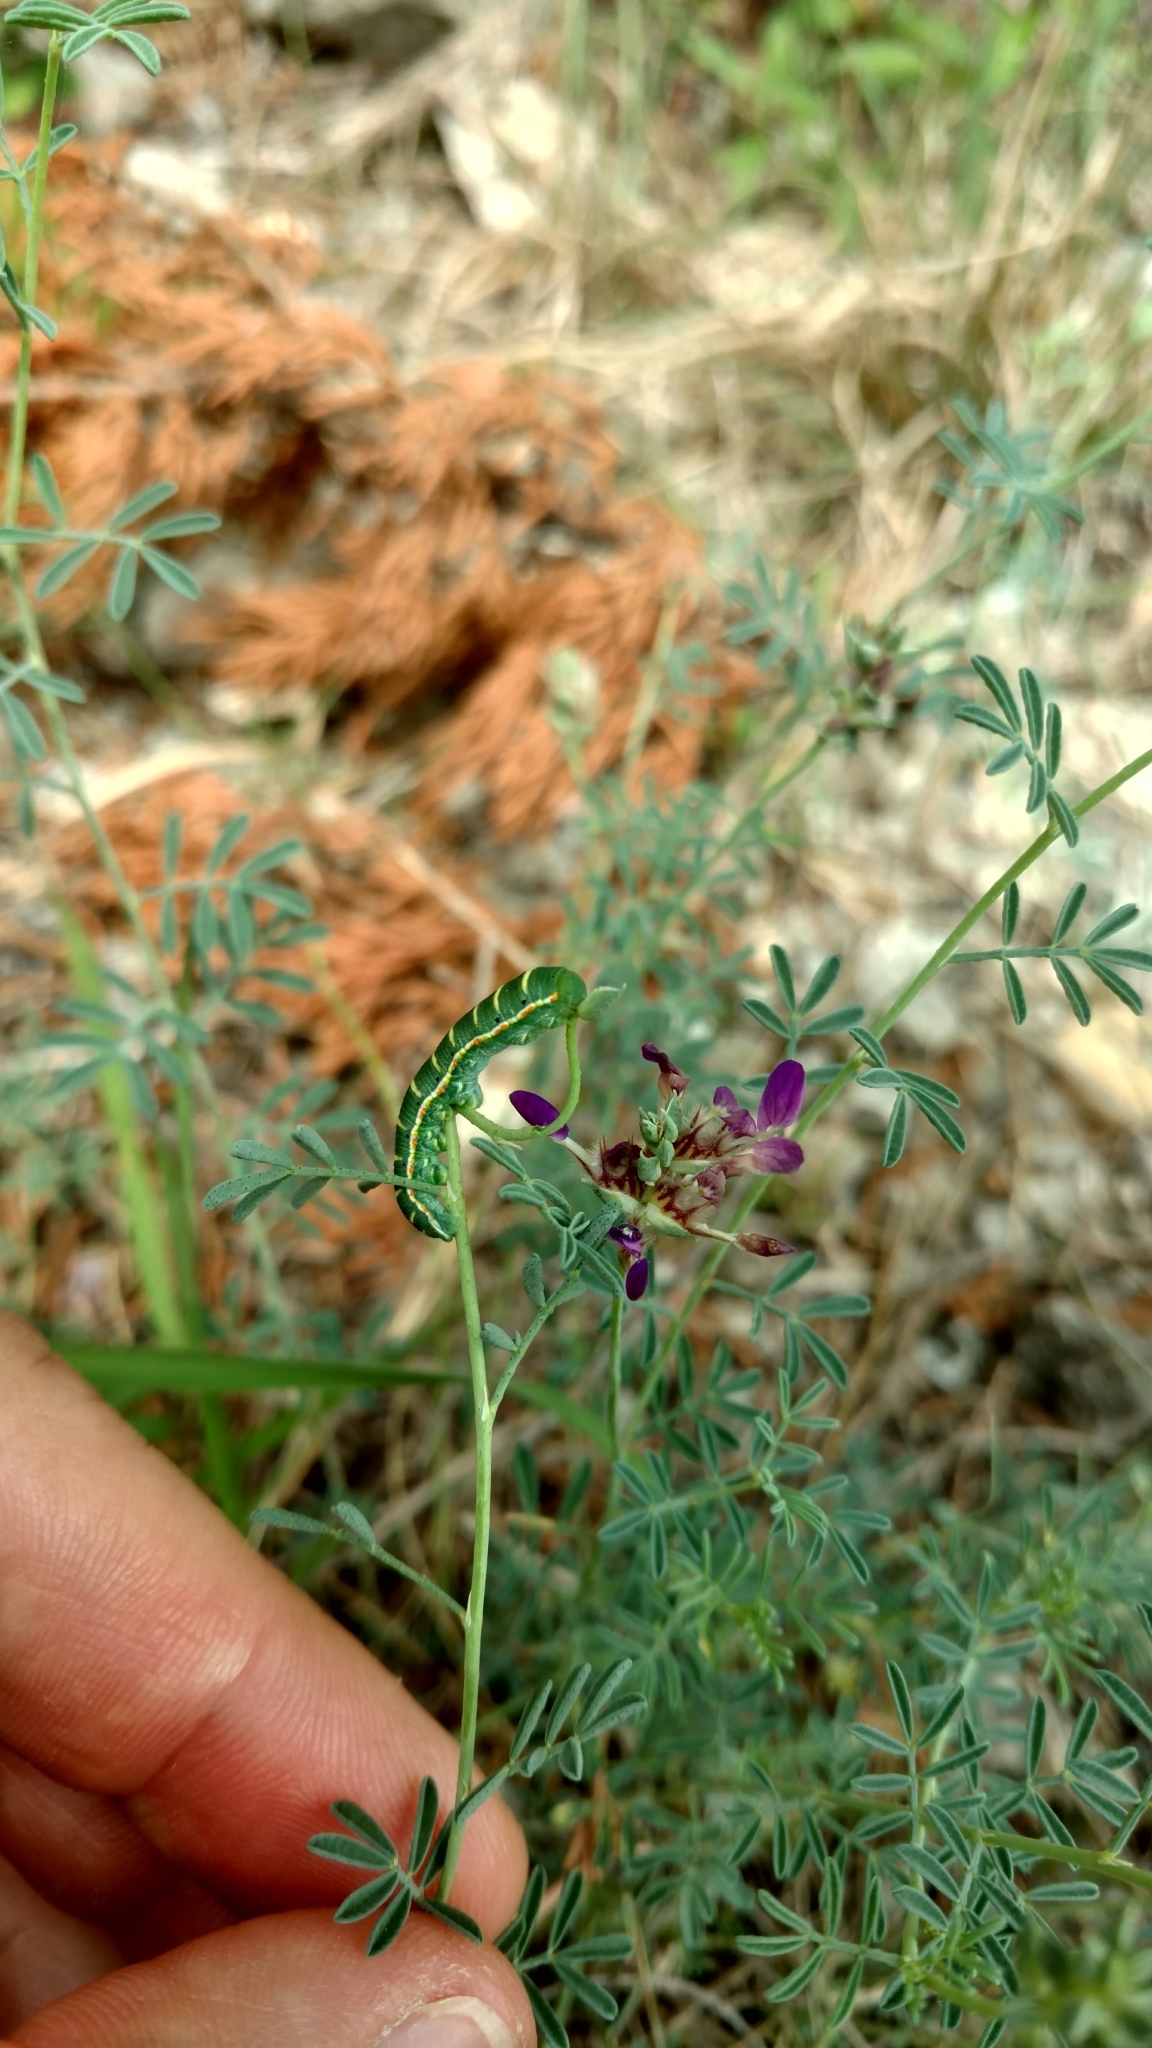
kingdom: Animalia
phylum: Arthropoda
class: Insecta
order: Lepidoptera
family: Pieridae
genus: Zerene
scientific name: Zerene cesonia
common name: Southern dogface
